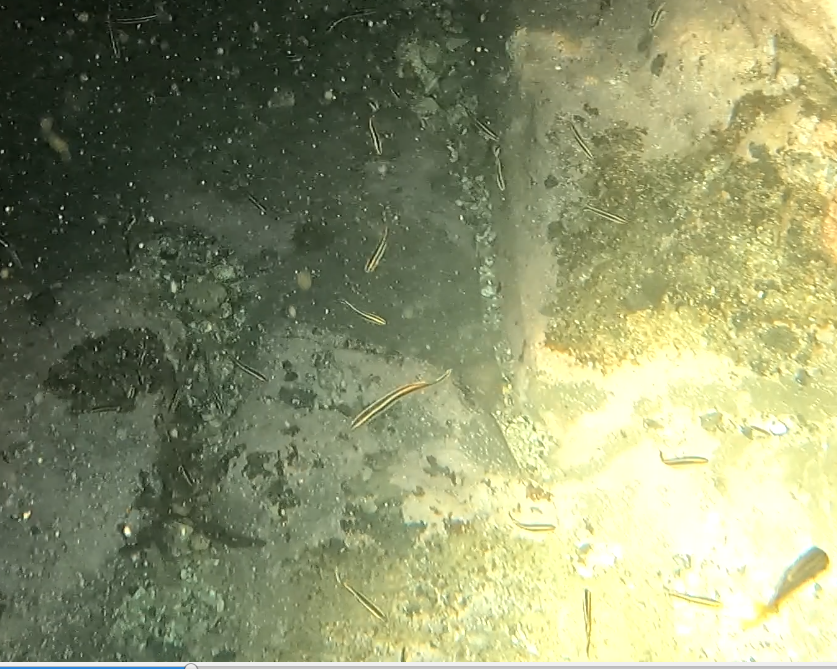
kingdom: Animalia
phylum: Chordata
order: Perciformes
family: Plesiopidae
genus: Trachinops
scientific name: Trachinops taeniatus
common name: Eastern hulafish
